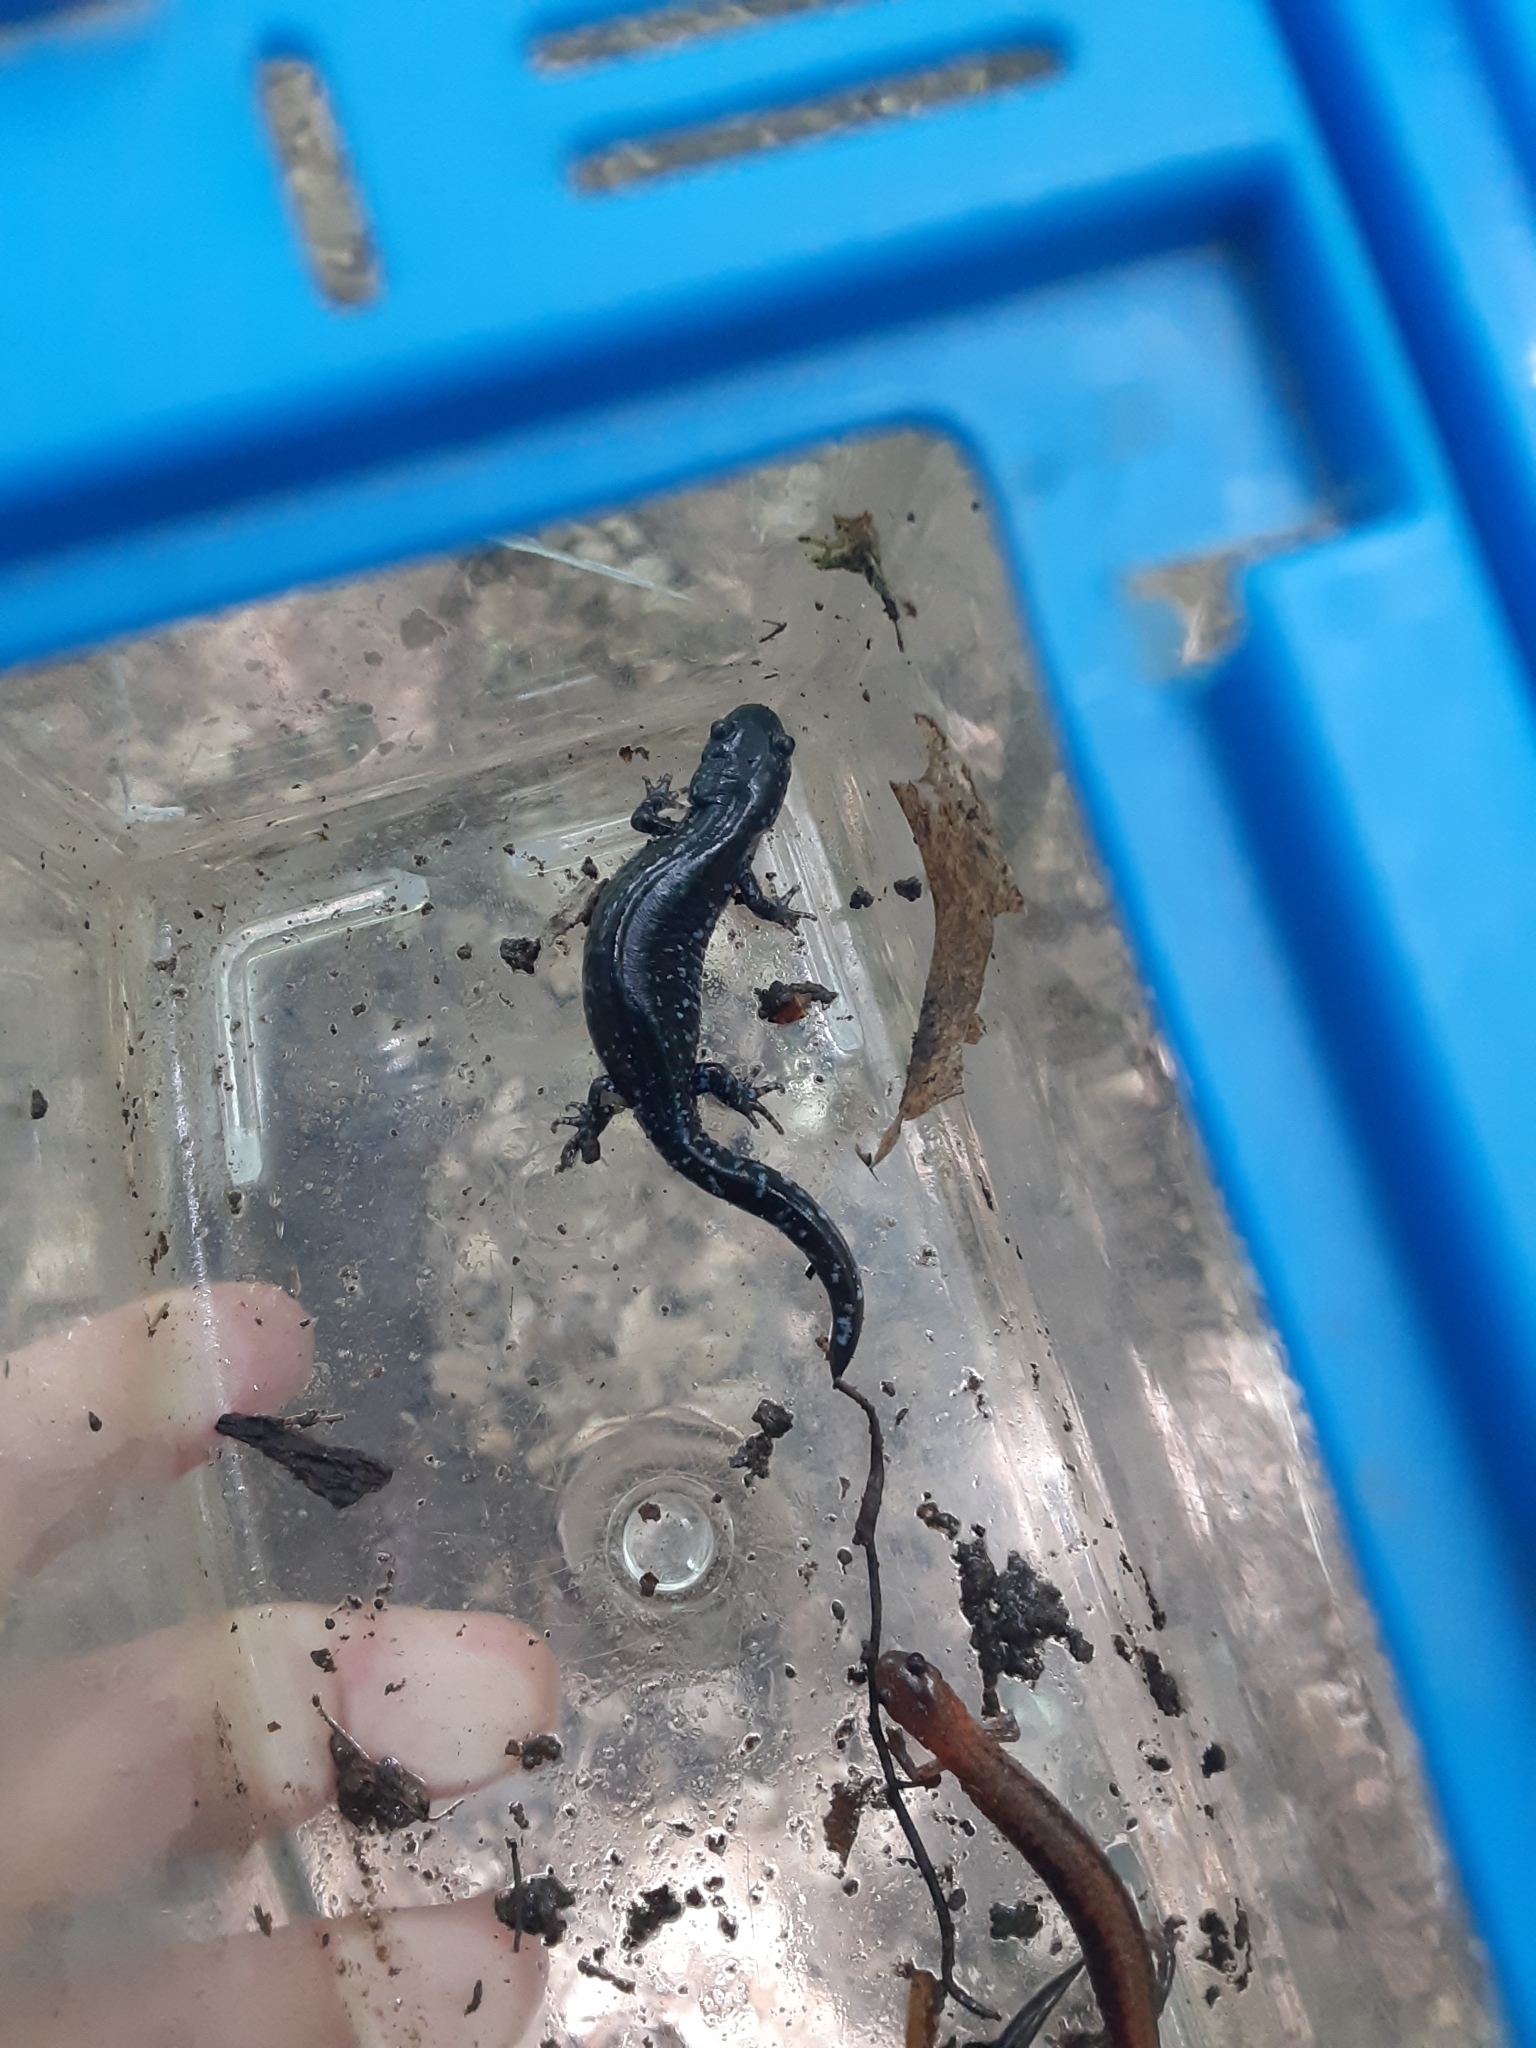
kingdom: Animalia
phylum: Chordata
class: Amphibia
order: Caudata
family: Ambystomatidae
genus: Ambystoma
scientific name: Ambystoma laterale
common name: Blue-spotted salamander
